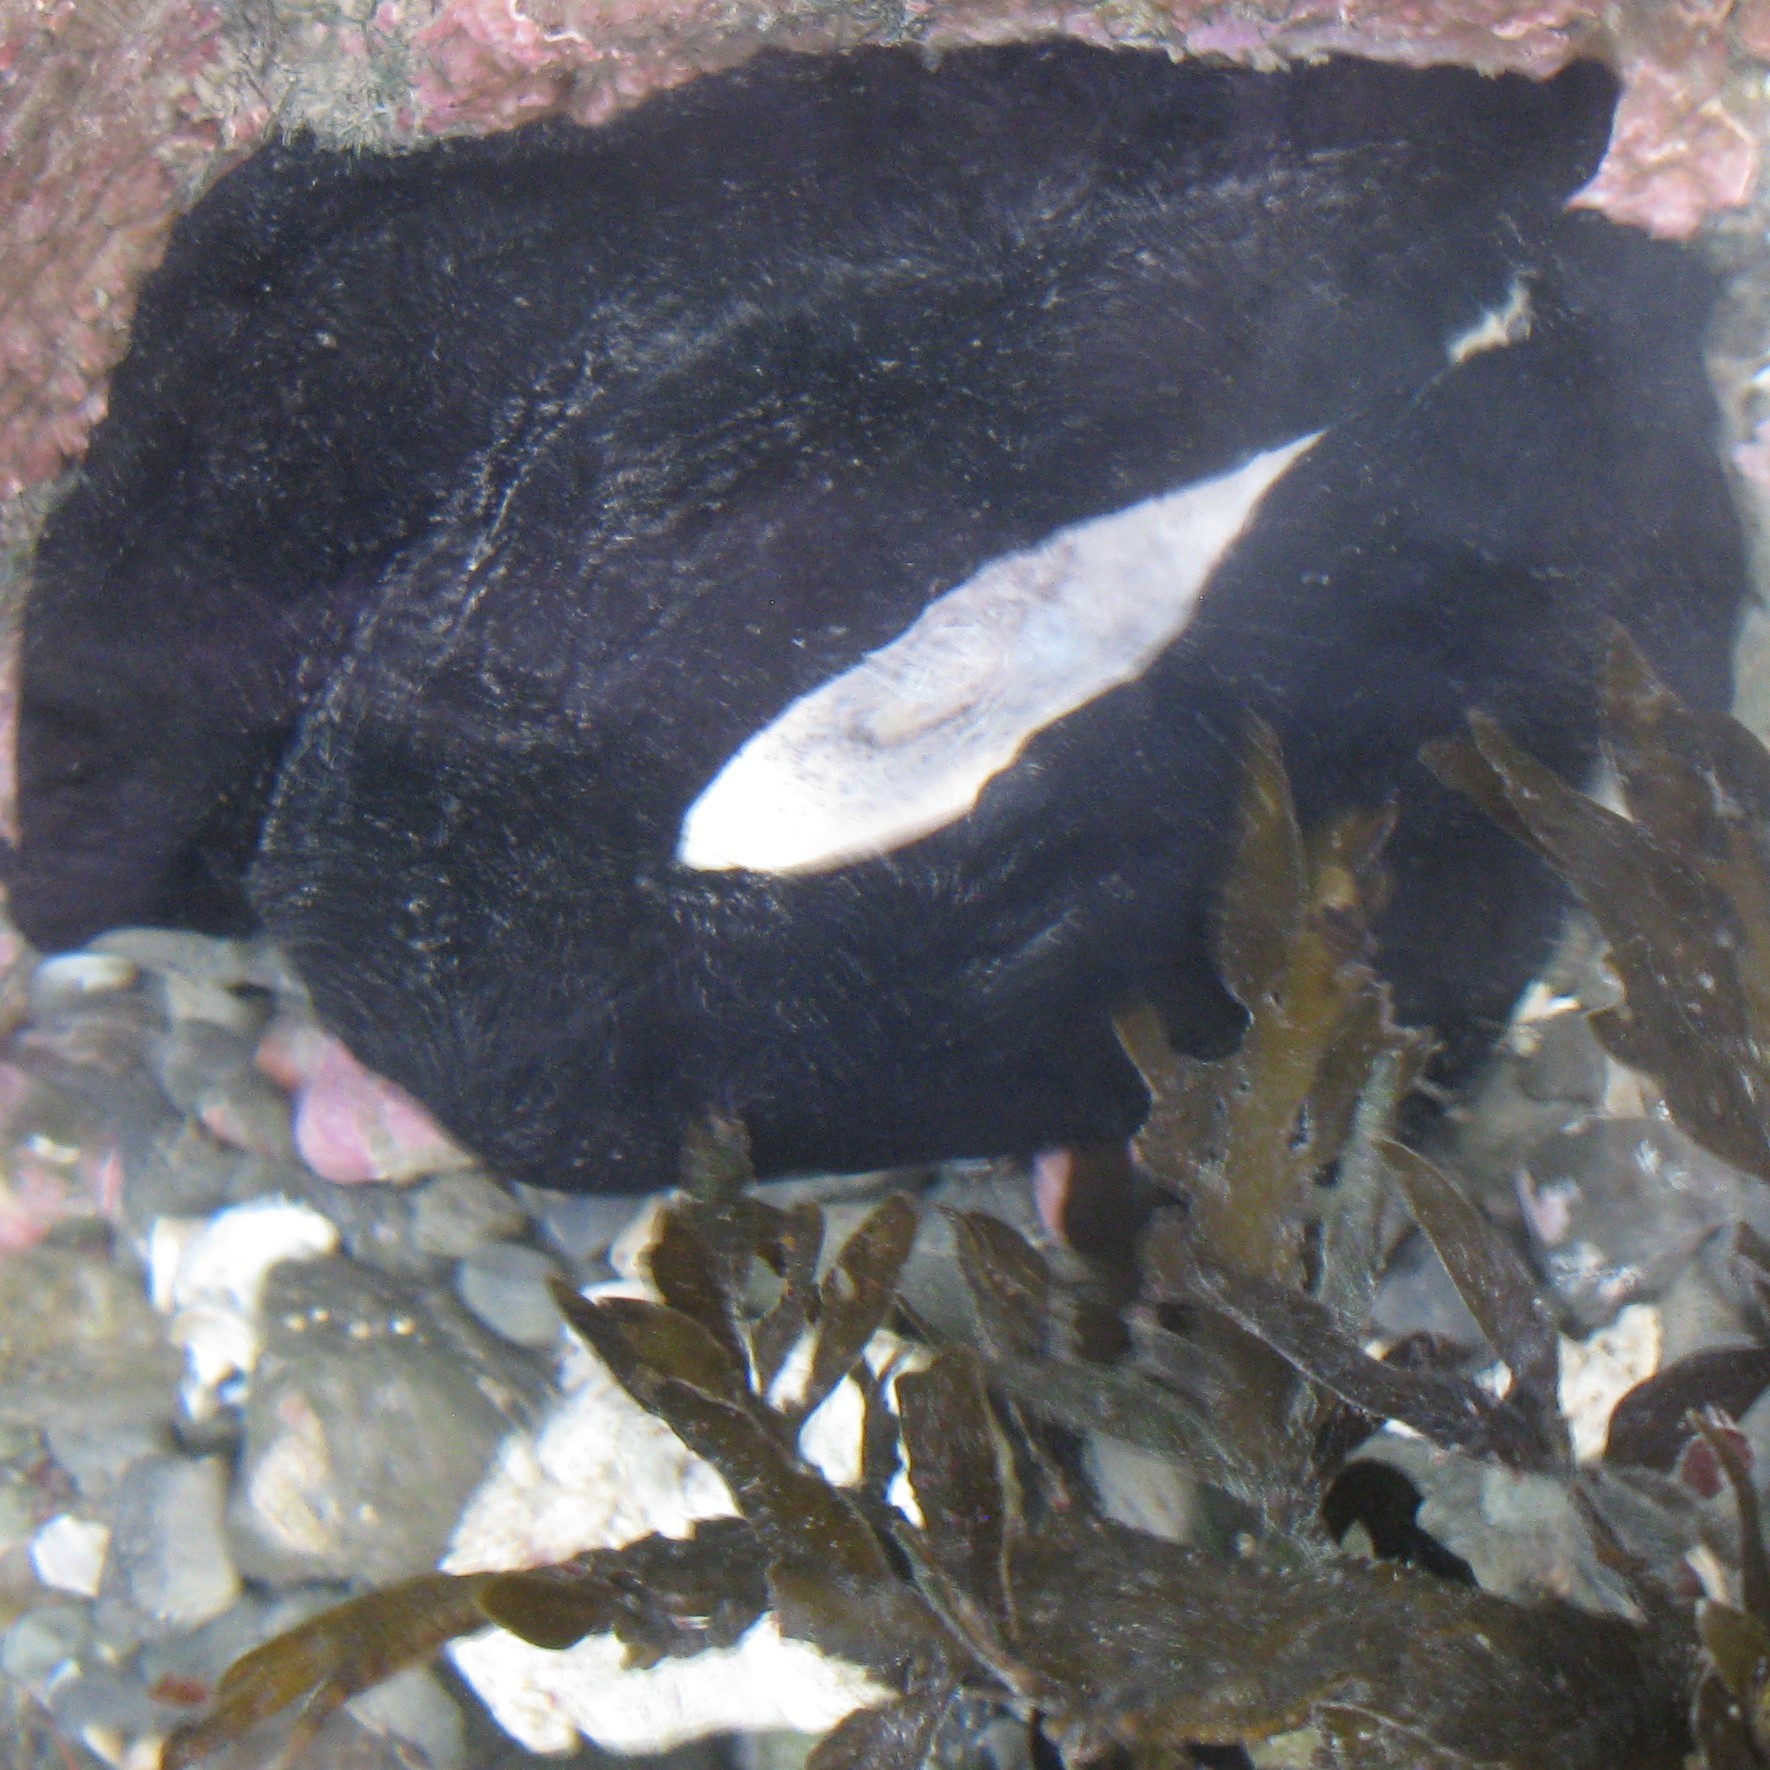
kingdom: Animalia
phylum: Mollusca
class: Gastropoda
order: Lepetellida
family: Fissurellidae
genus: Scutus
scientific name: Scutus breviculus
